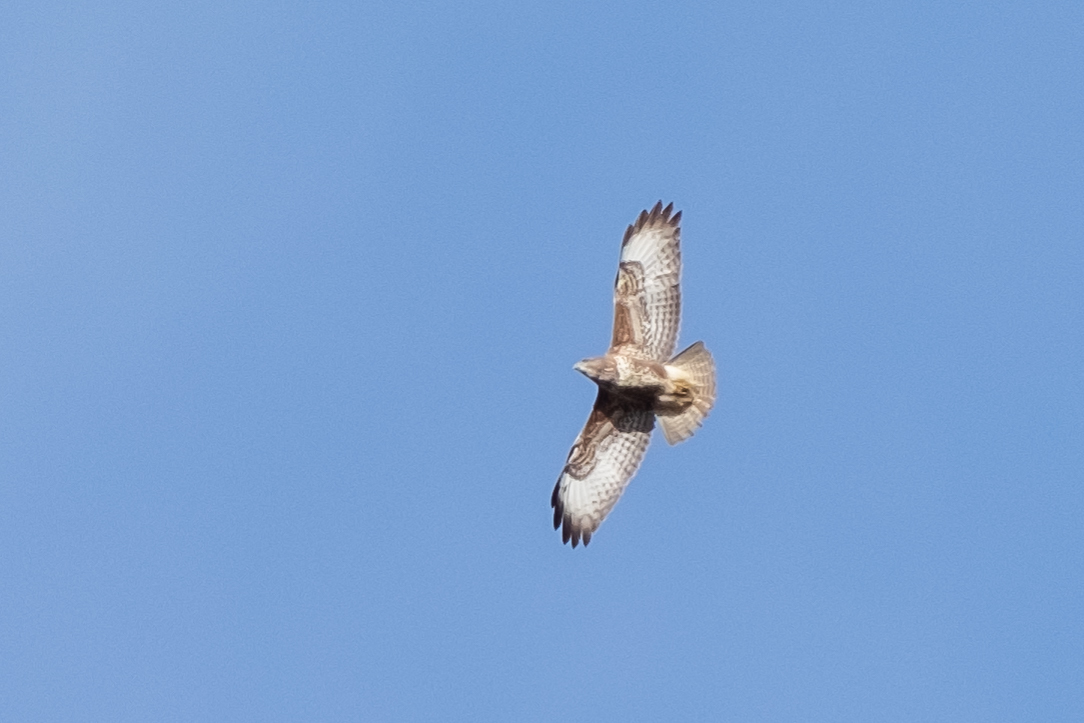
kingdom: Animalia
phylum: Chordata
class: Aves
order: Accipitriformes
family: Accipitridae
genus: Buteo
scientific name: Buteo buteo
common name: Common buzzard
